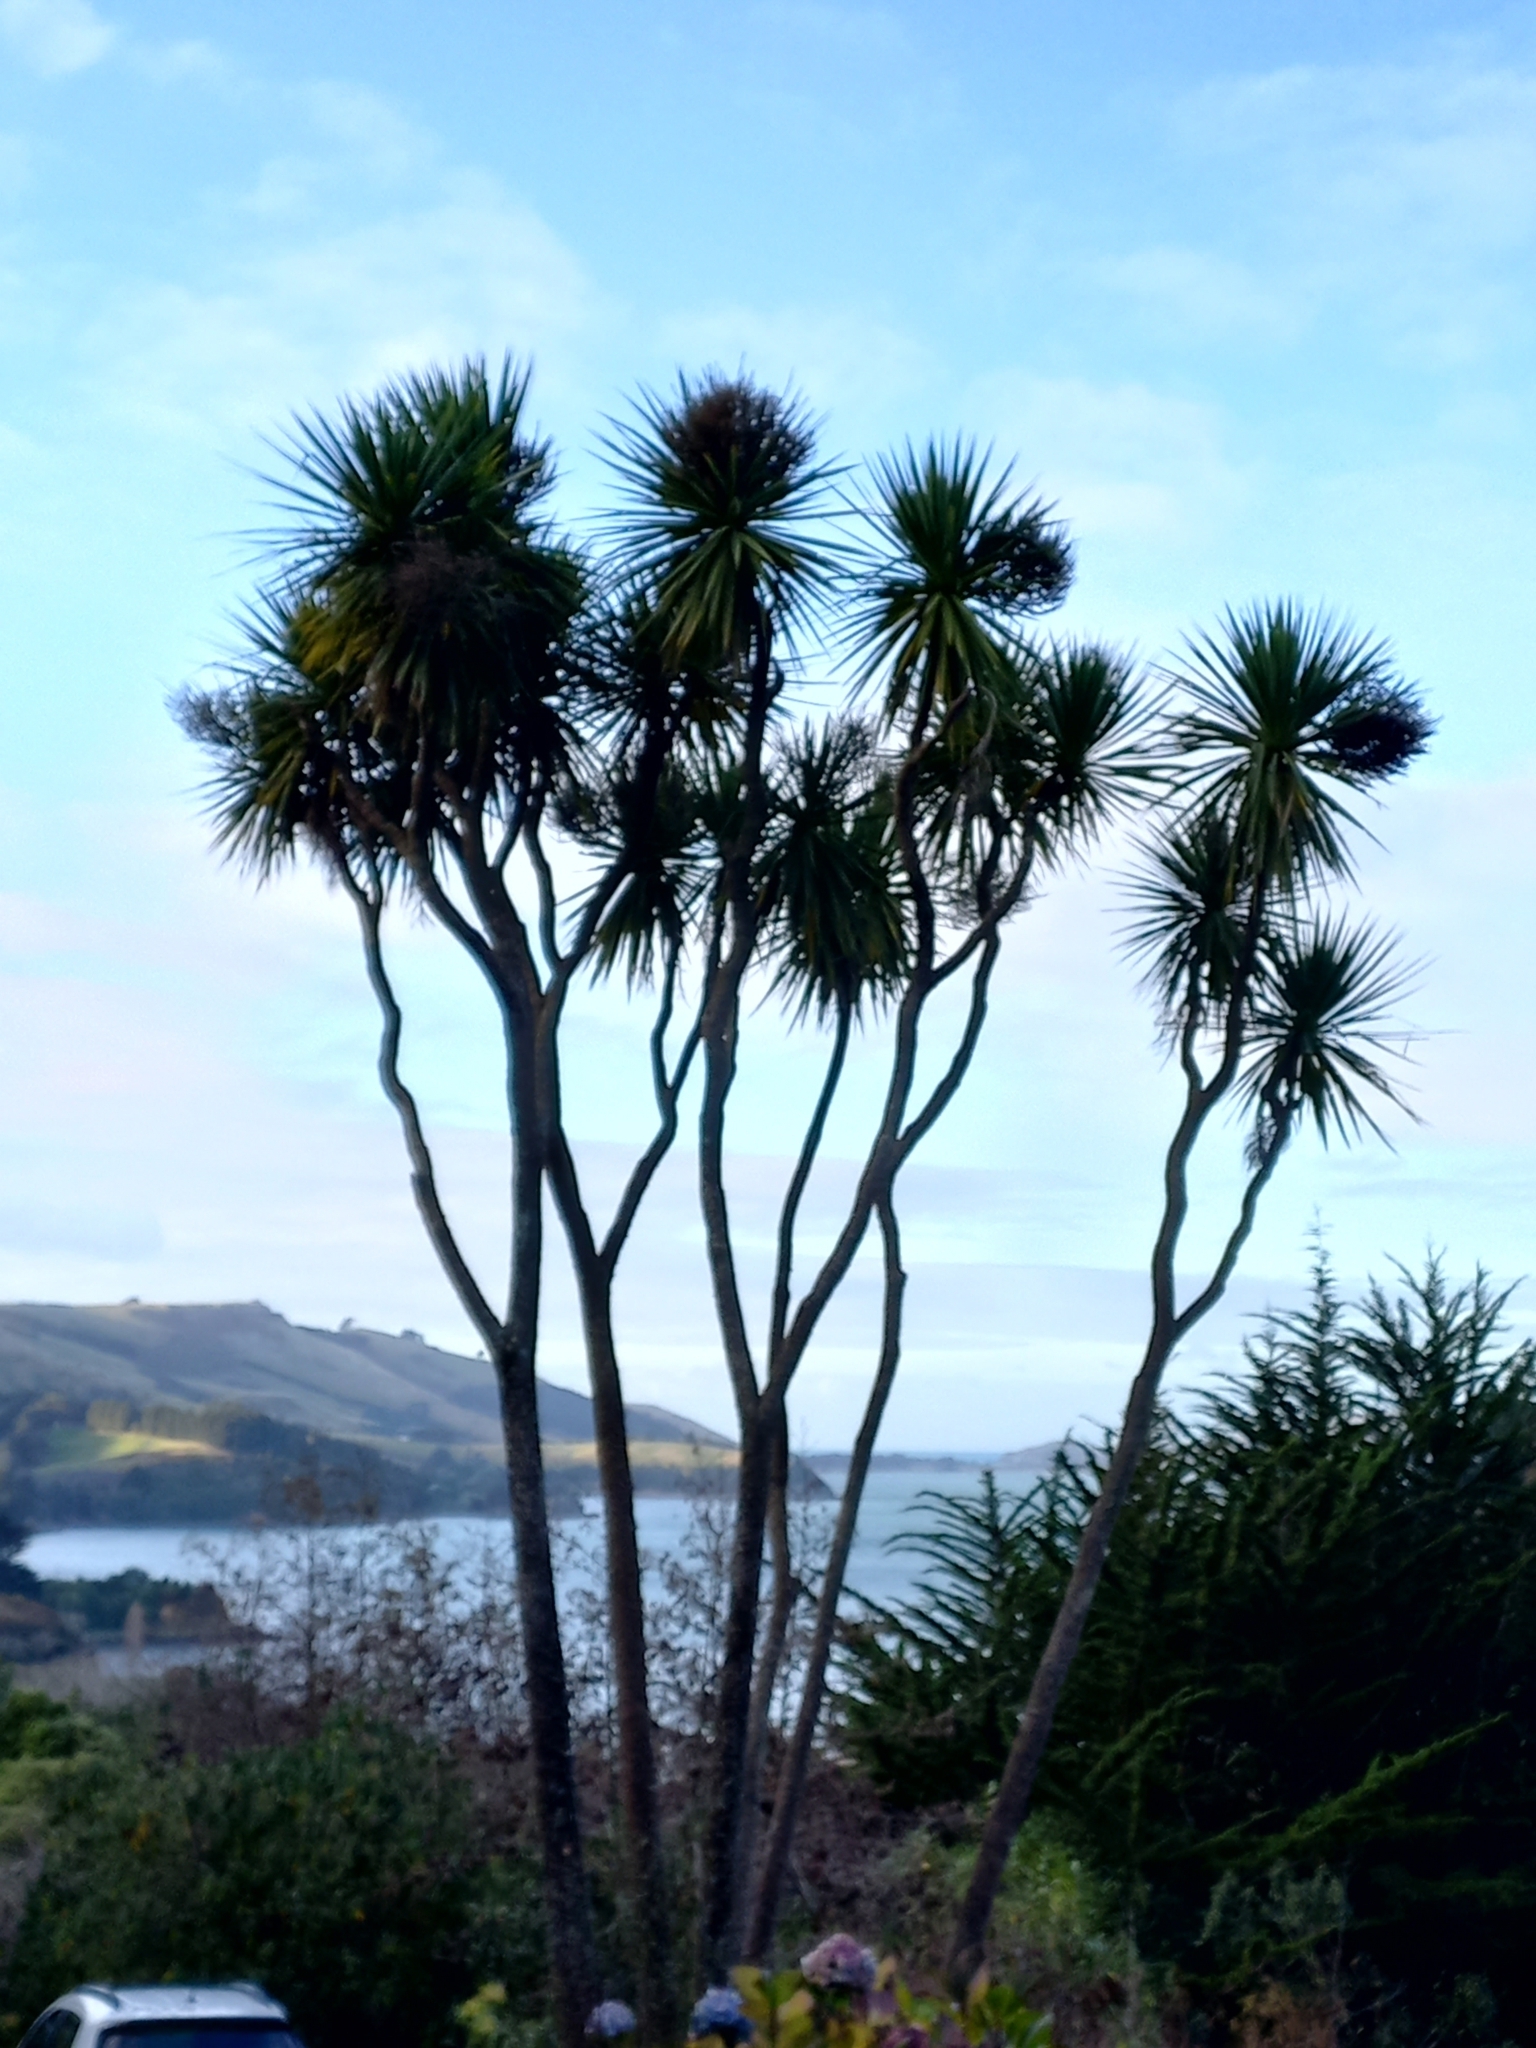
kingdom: Plantae
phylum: Tracheophyta
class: Liliopsida
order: Asparagales
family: Asparagaceae
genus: Cordyline
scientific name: Cordyline australis
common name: Cabbage-palm
